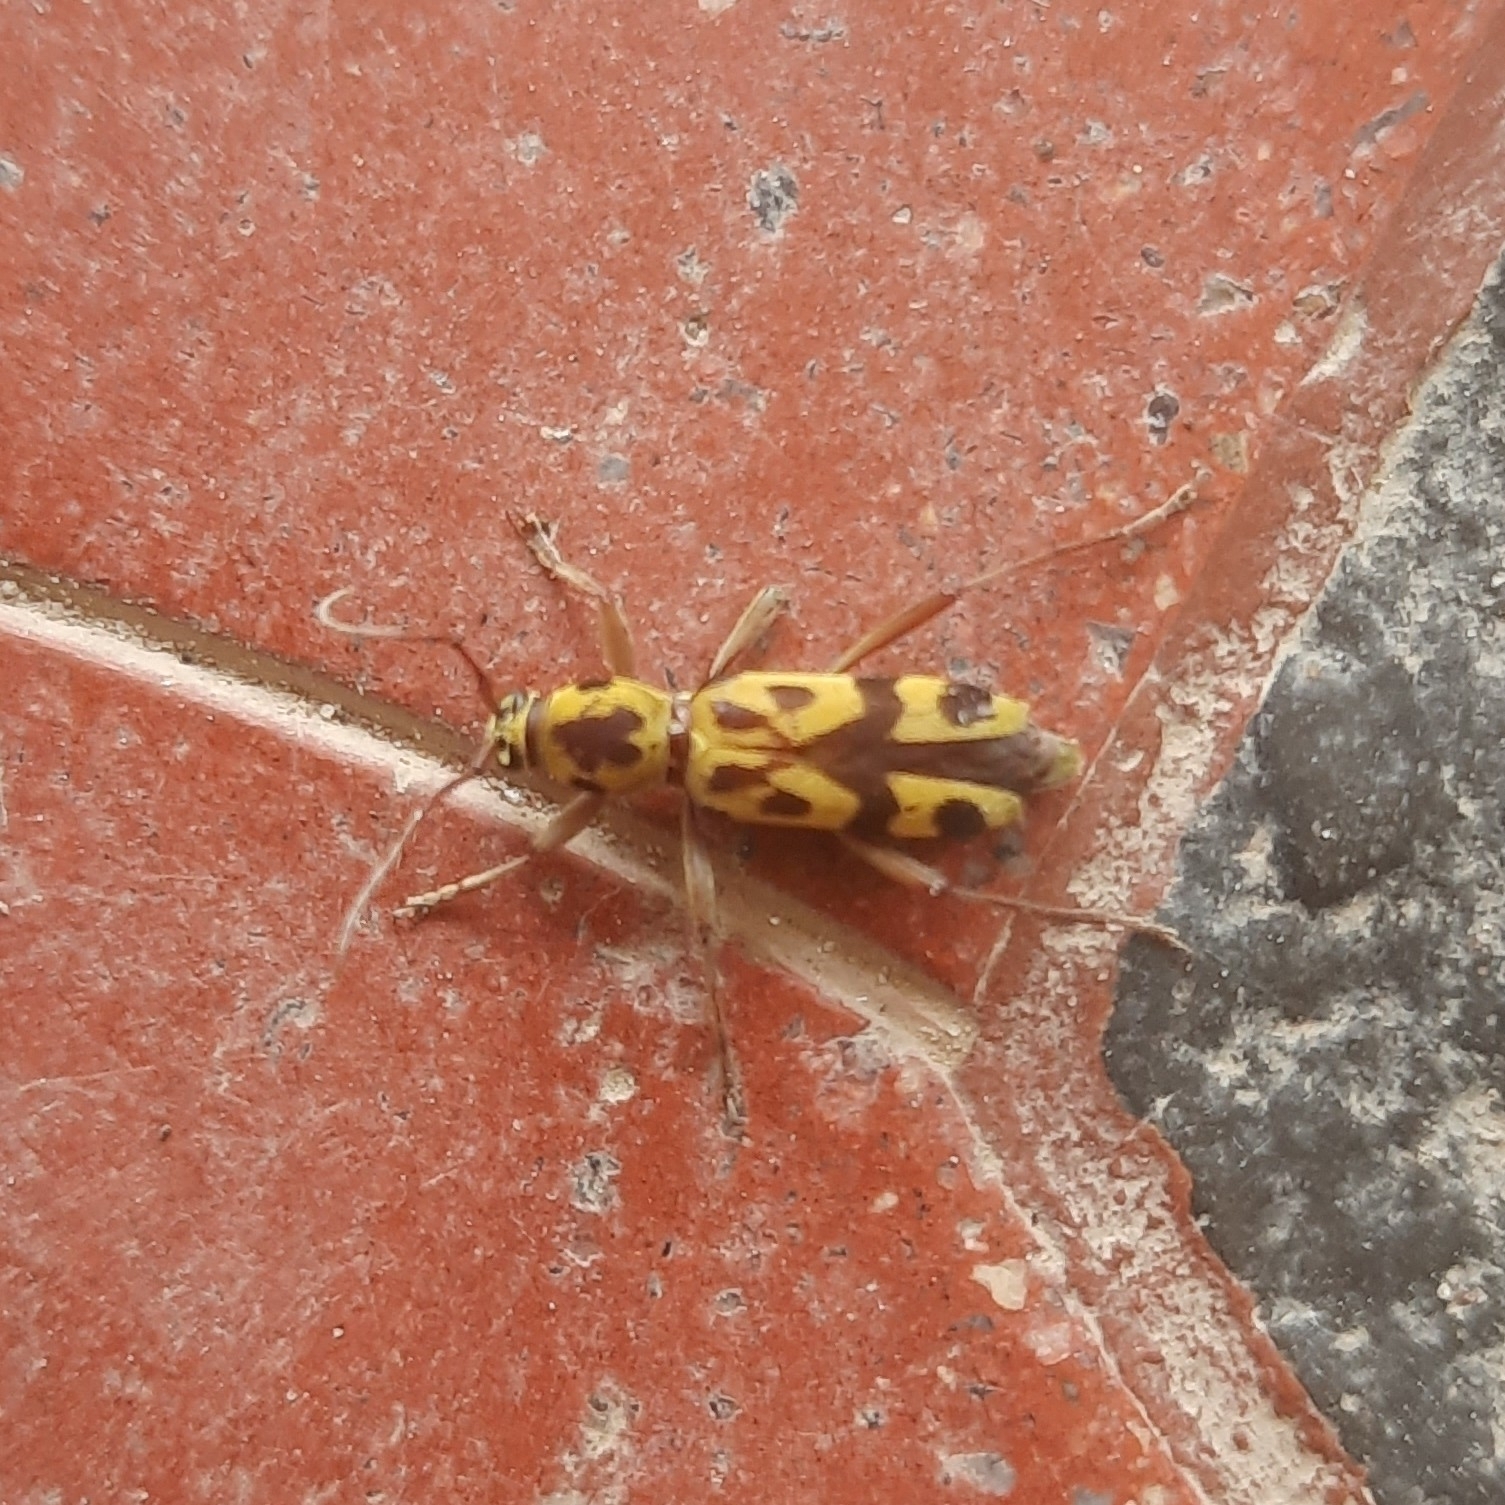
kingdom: Animalia
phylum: Arthropoda
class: Insecta
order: Coleoptera
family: Cerambycidae
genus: Chlorophorus
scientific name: Chlorophorus jucundus
